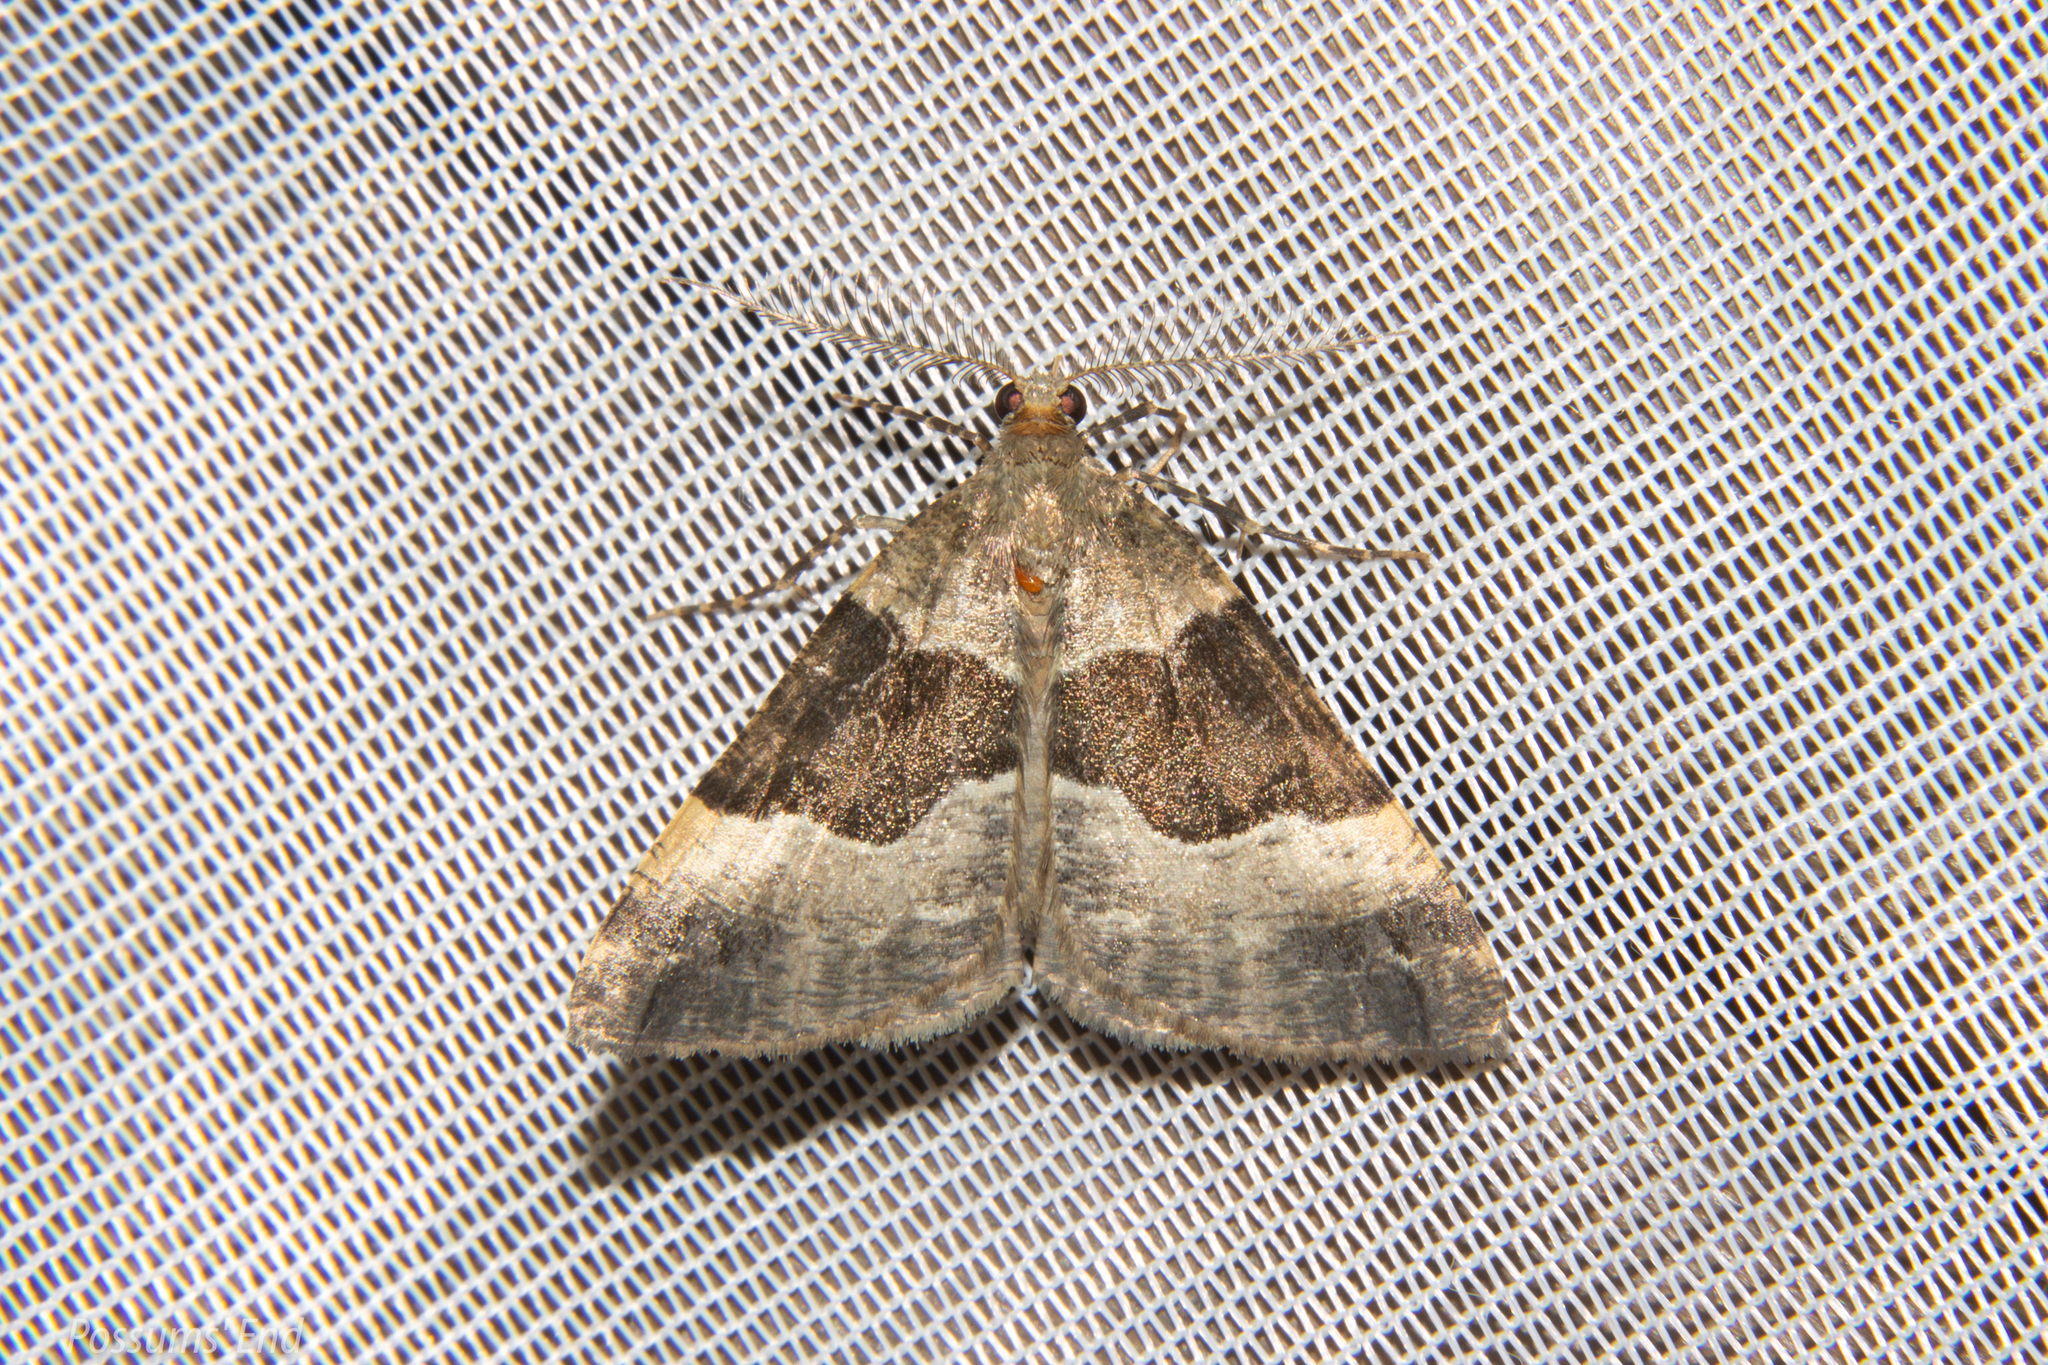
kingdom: Animalia
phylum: Arthropoda
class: Insecta
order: Lepidoptera
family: Geometridae
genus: Pseudocoremia
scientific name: Pseudocoremia
